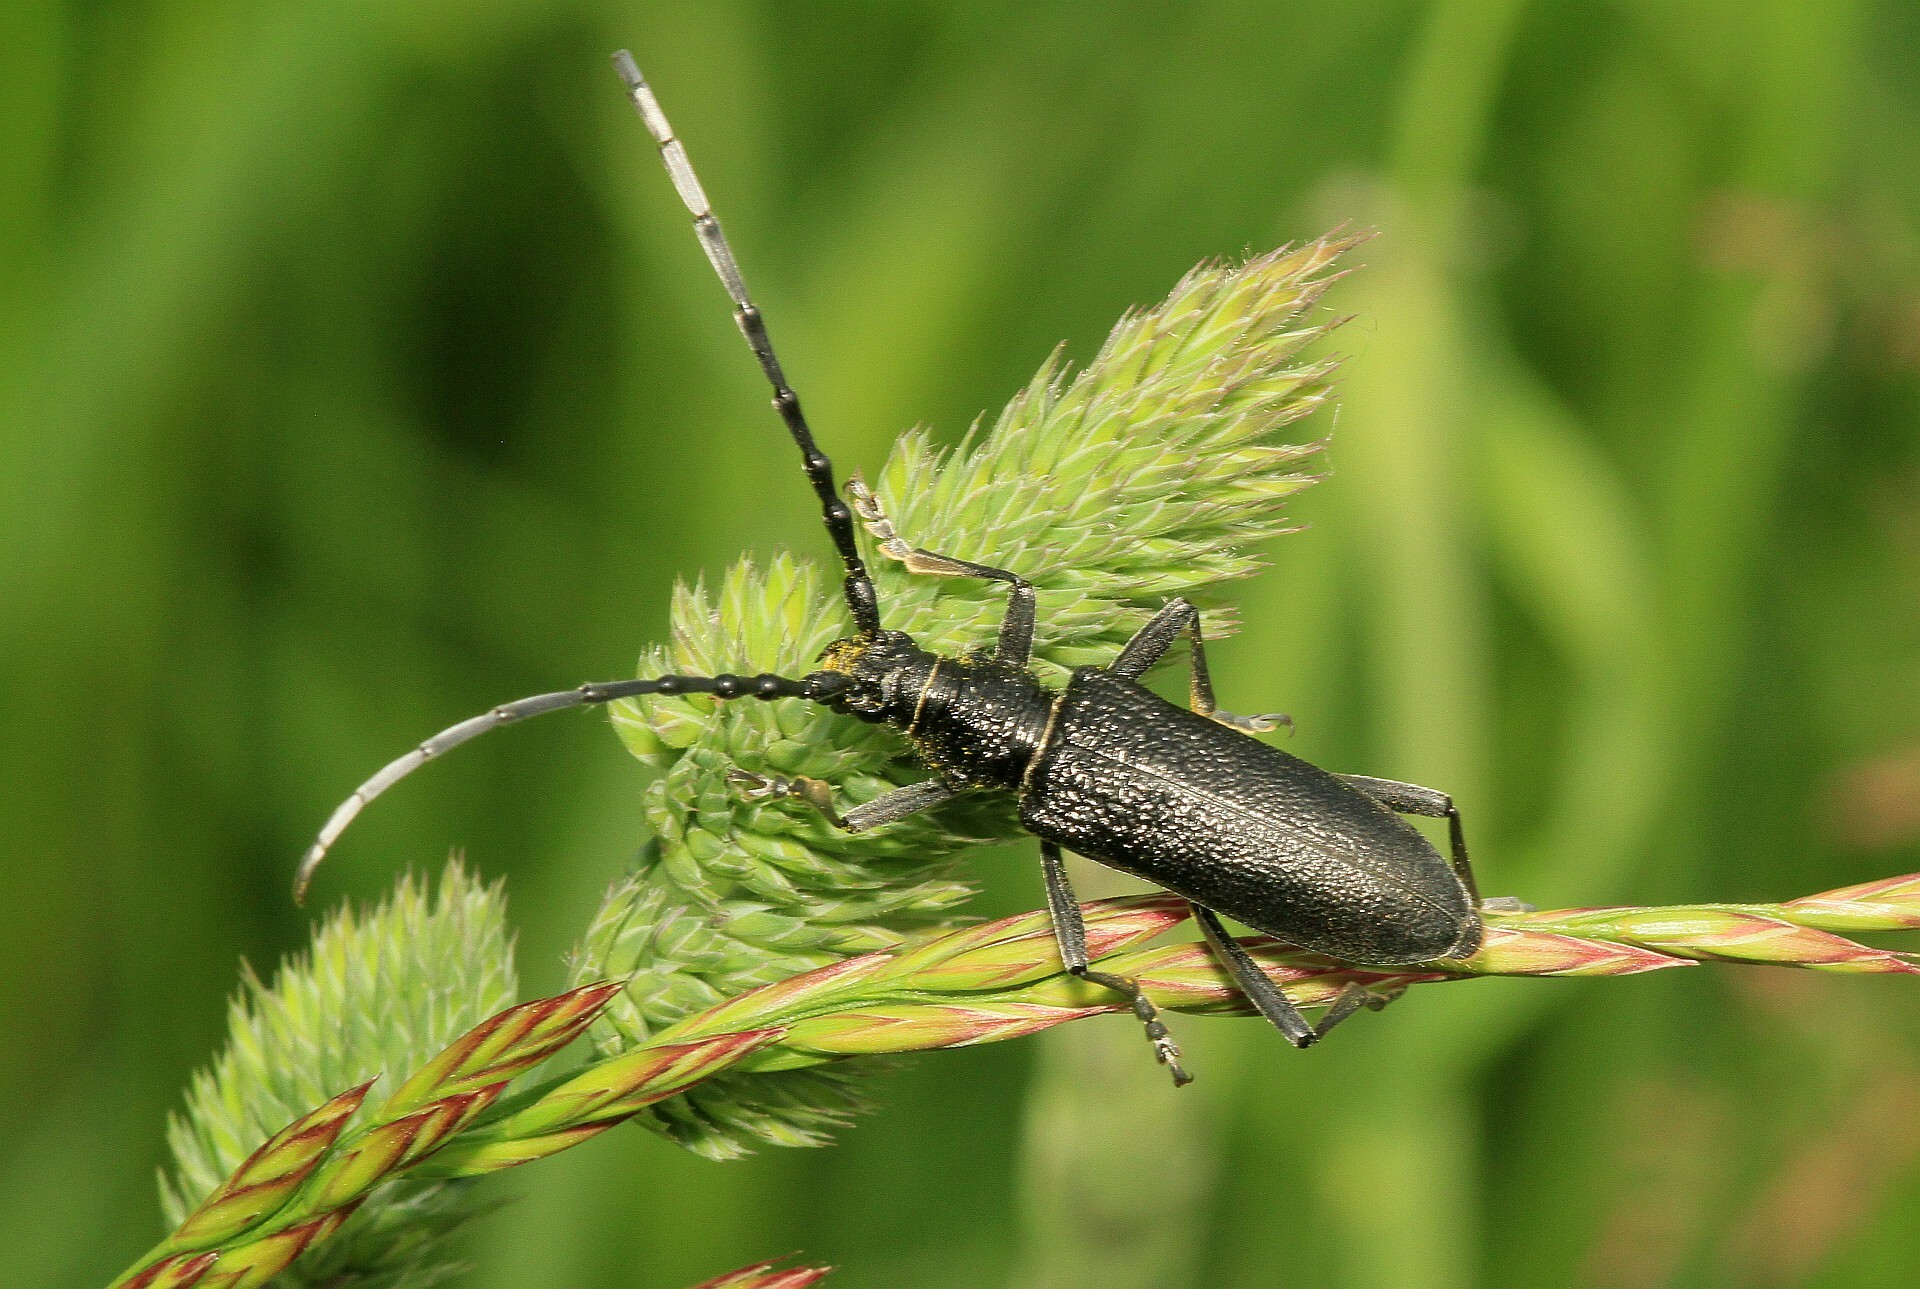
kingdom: Animalia
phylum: Arthropoda
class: Insecta
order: Coleoptera
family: Cerambycidae
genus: Cerambyx
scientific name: Cerambyx scopolii
